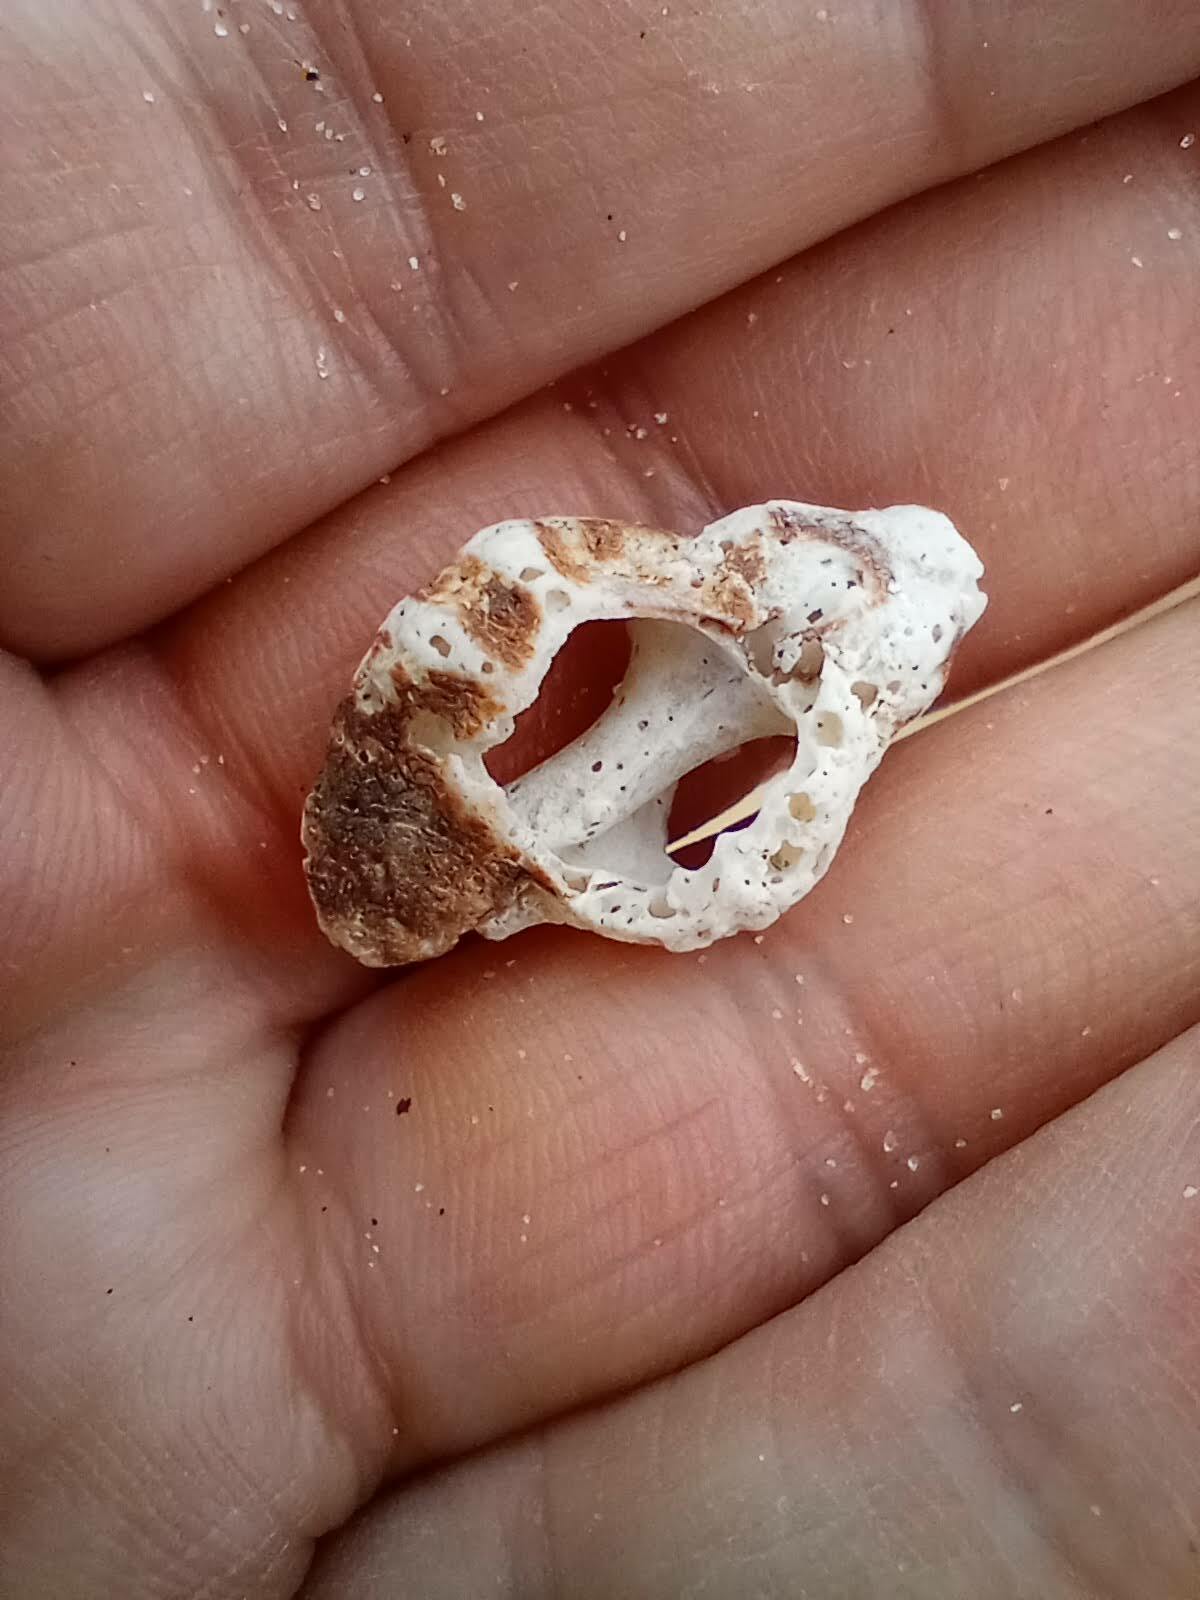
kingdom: Animalia
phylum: Mollusca
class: Gastropoda
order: Neogastropoda
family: Muricidae
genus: Ceratostoma
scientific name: Ceratostoma nuttalli
